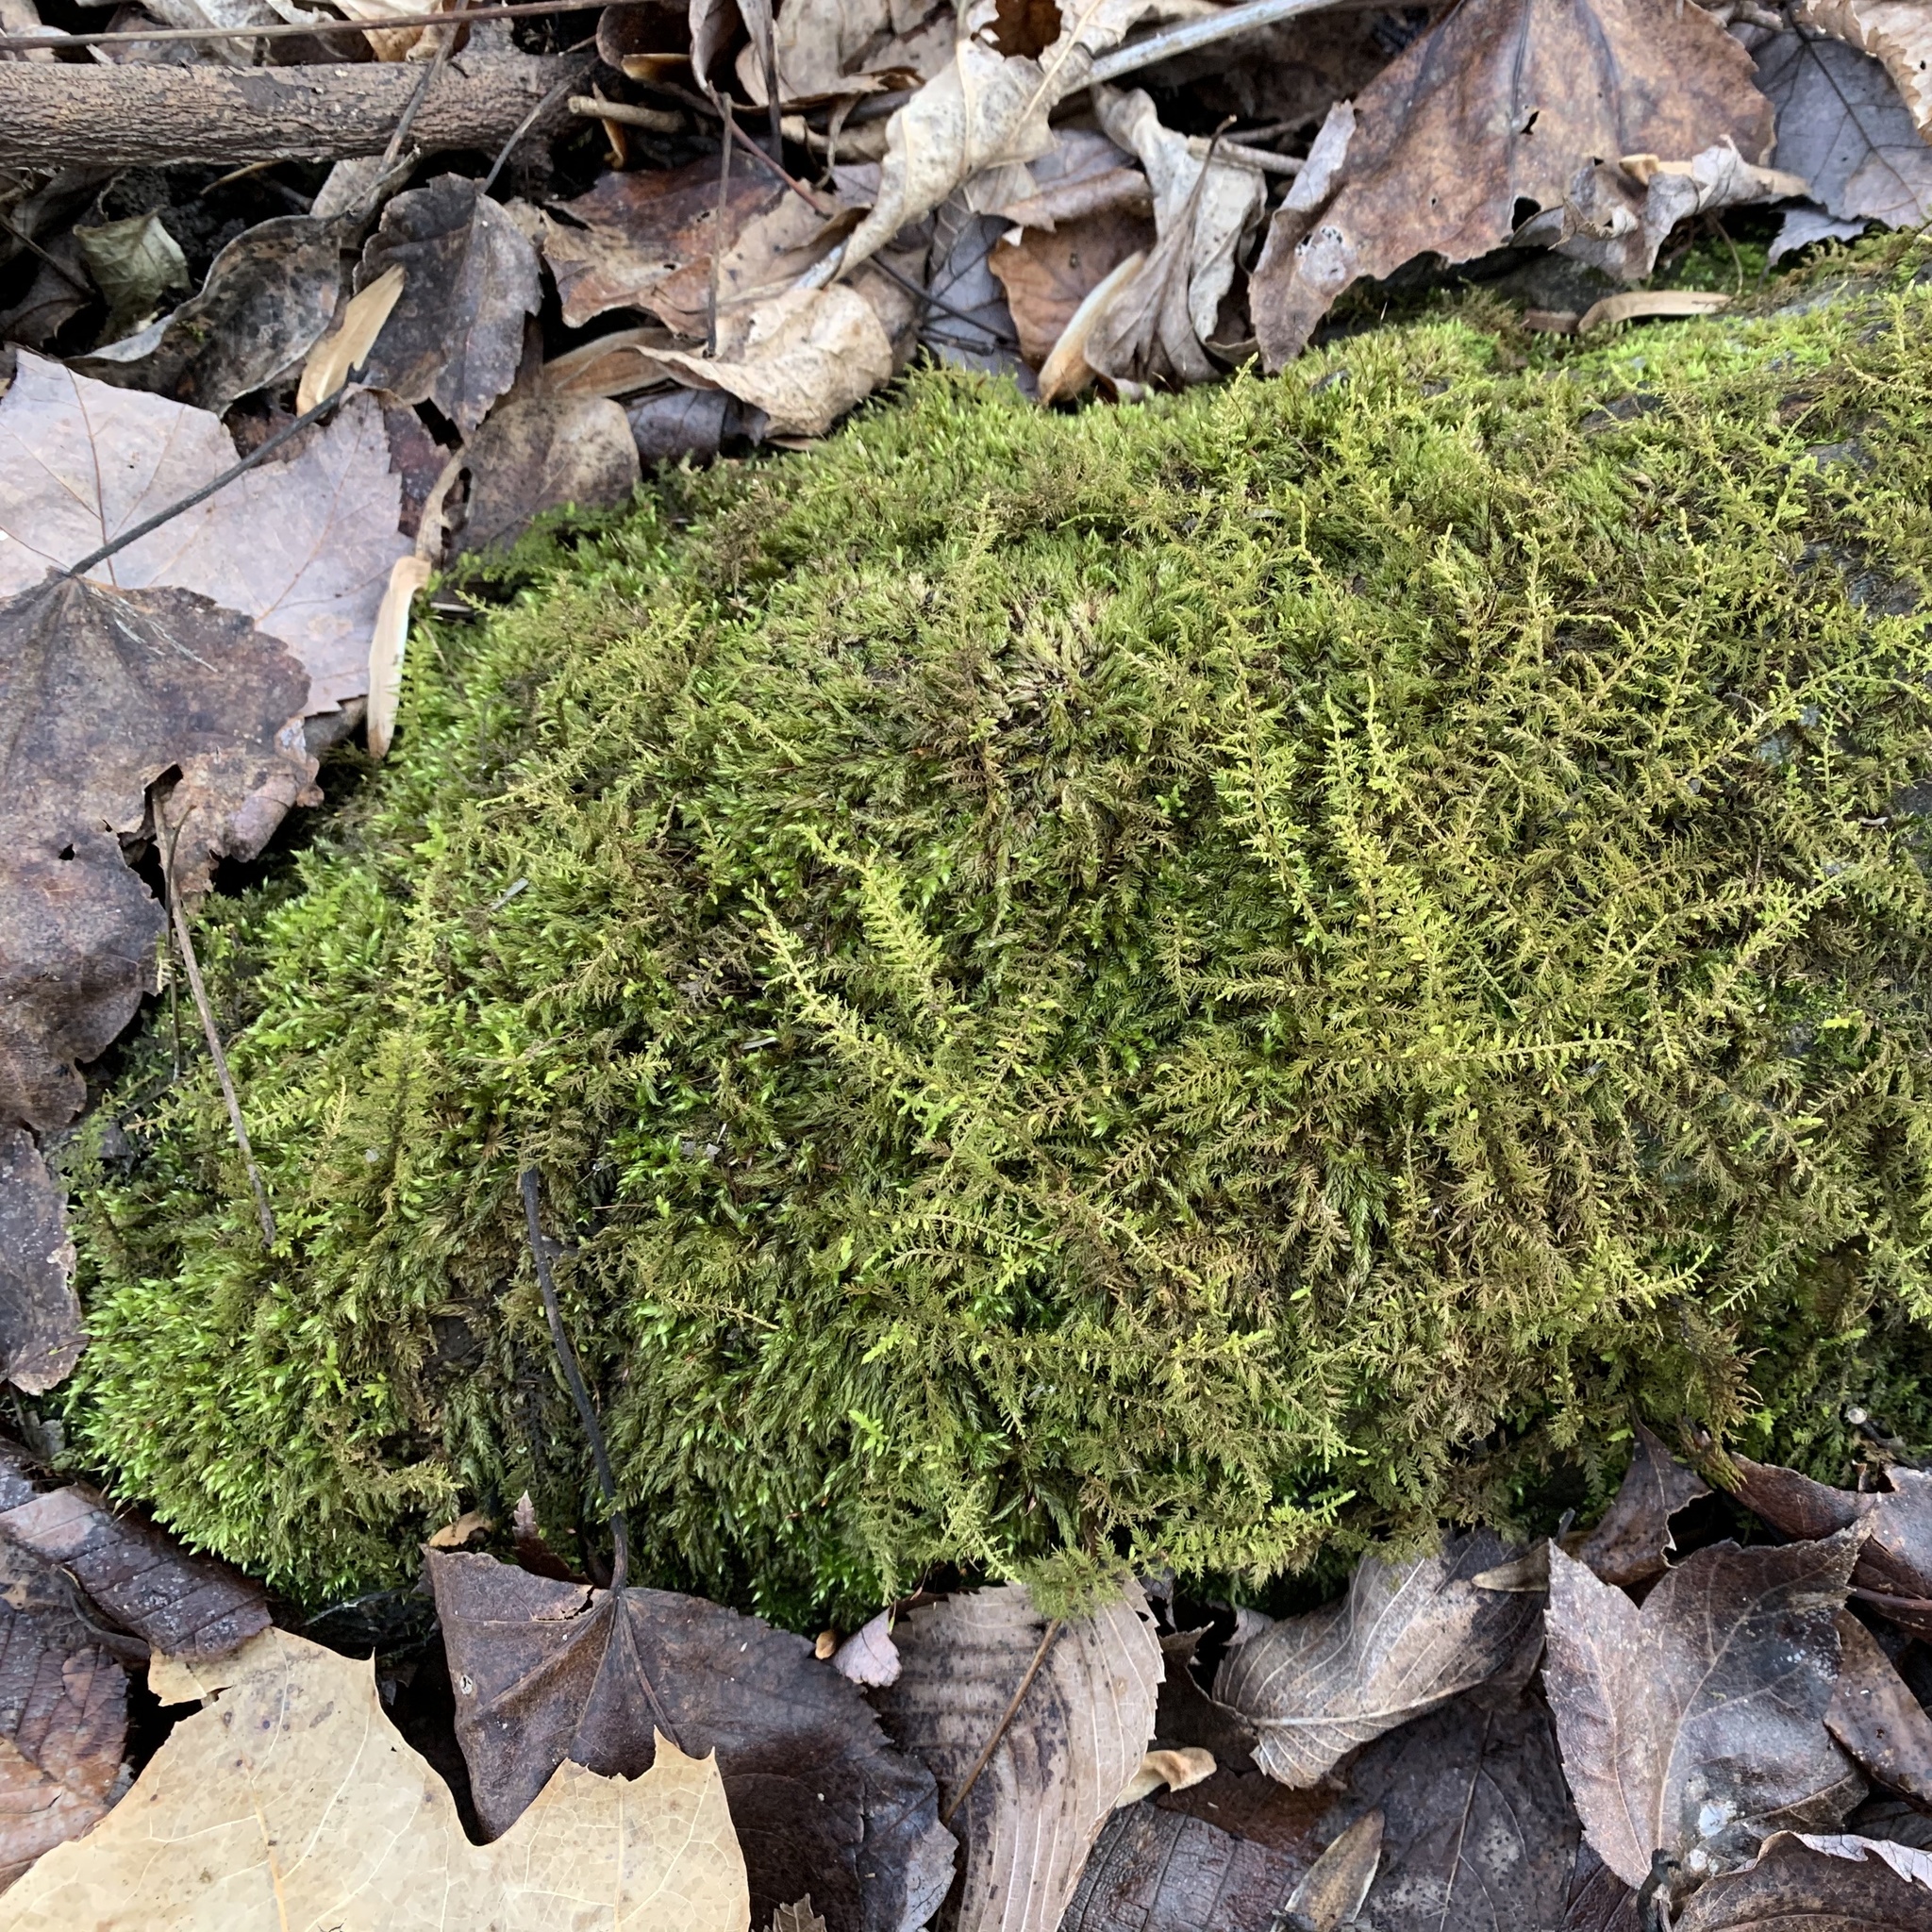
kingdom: Plantae
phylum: Bryophyta
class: Bryopsida
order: Hypnales
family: Thuidiaceae
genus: Thuidium
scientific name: Thuidium delicatulum
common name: Delicate fern moss
